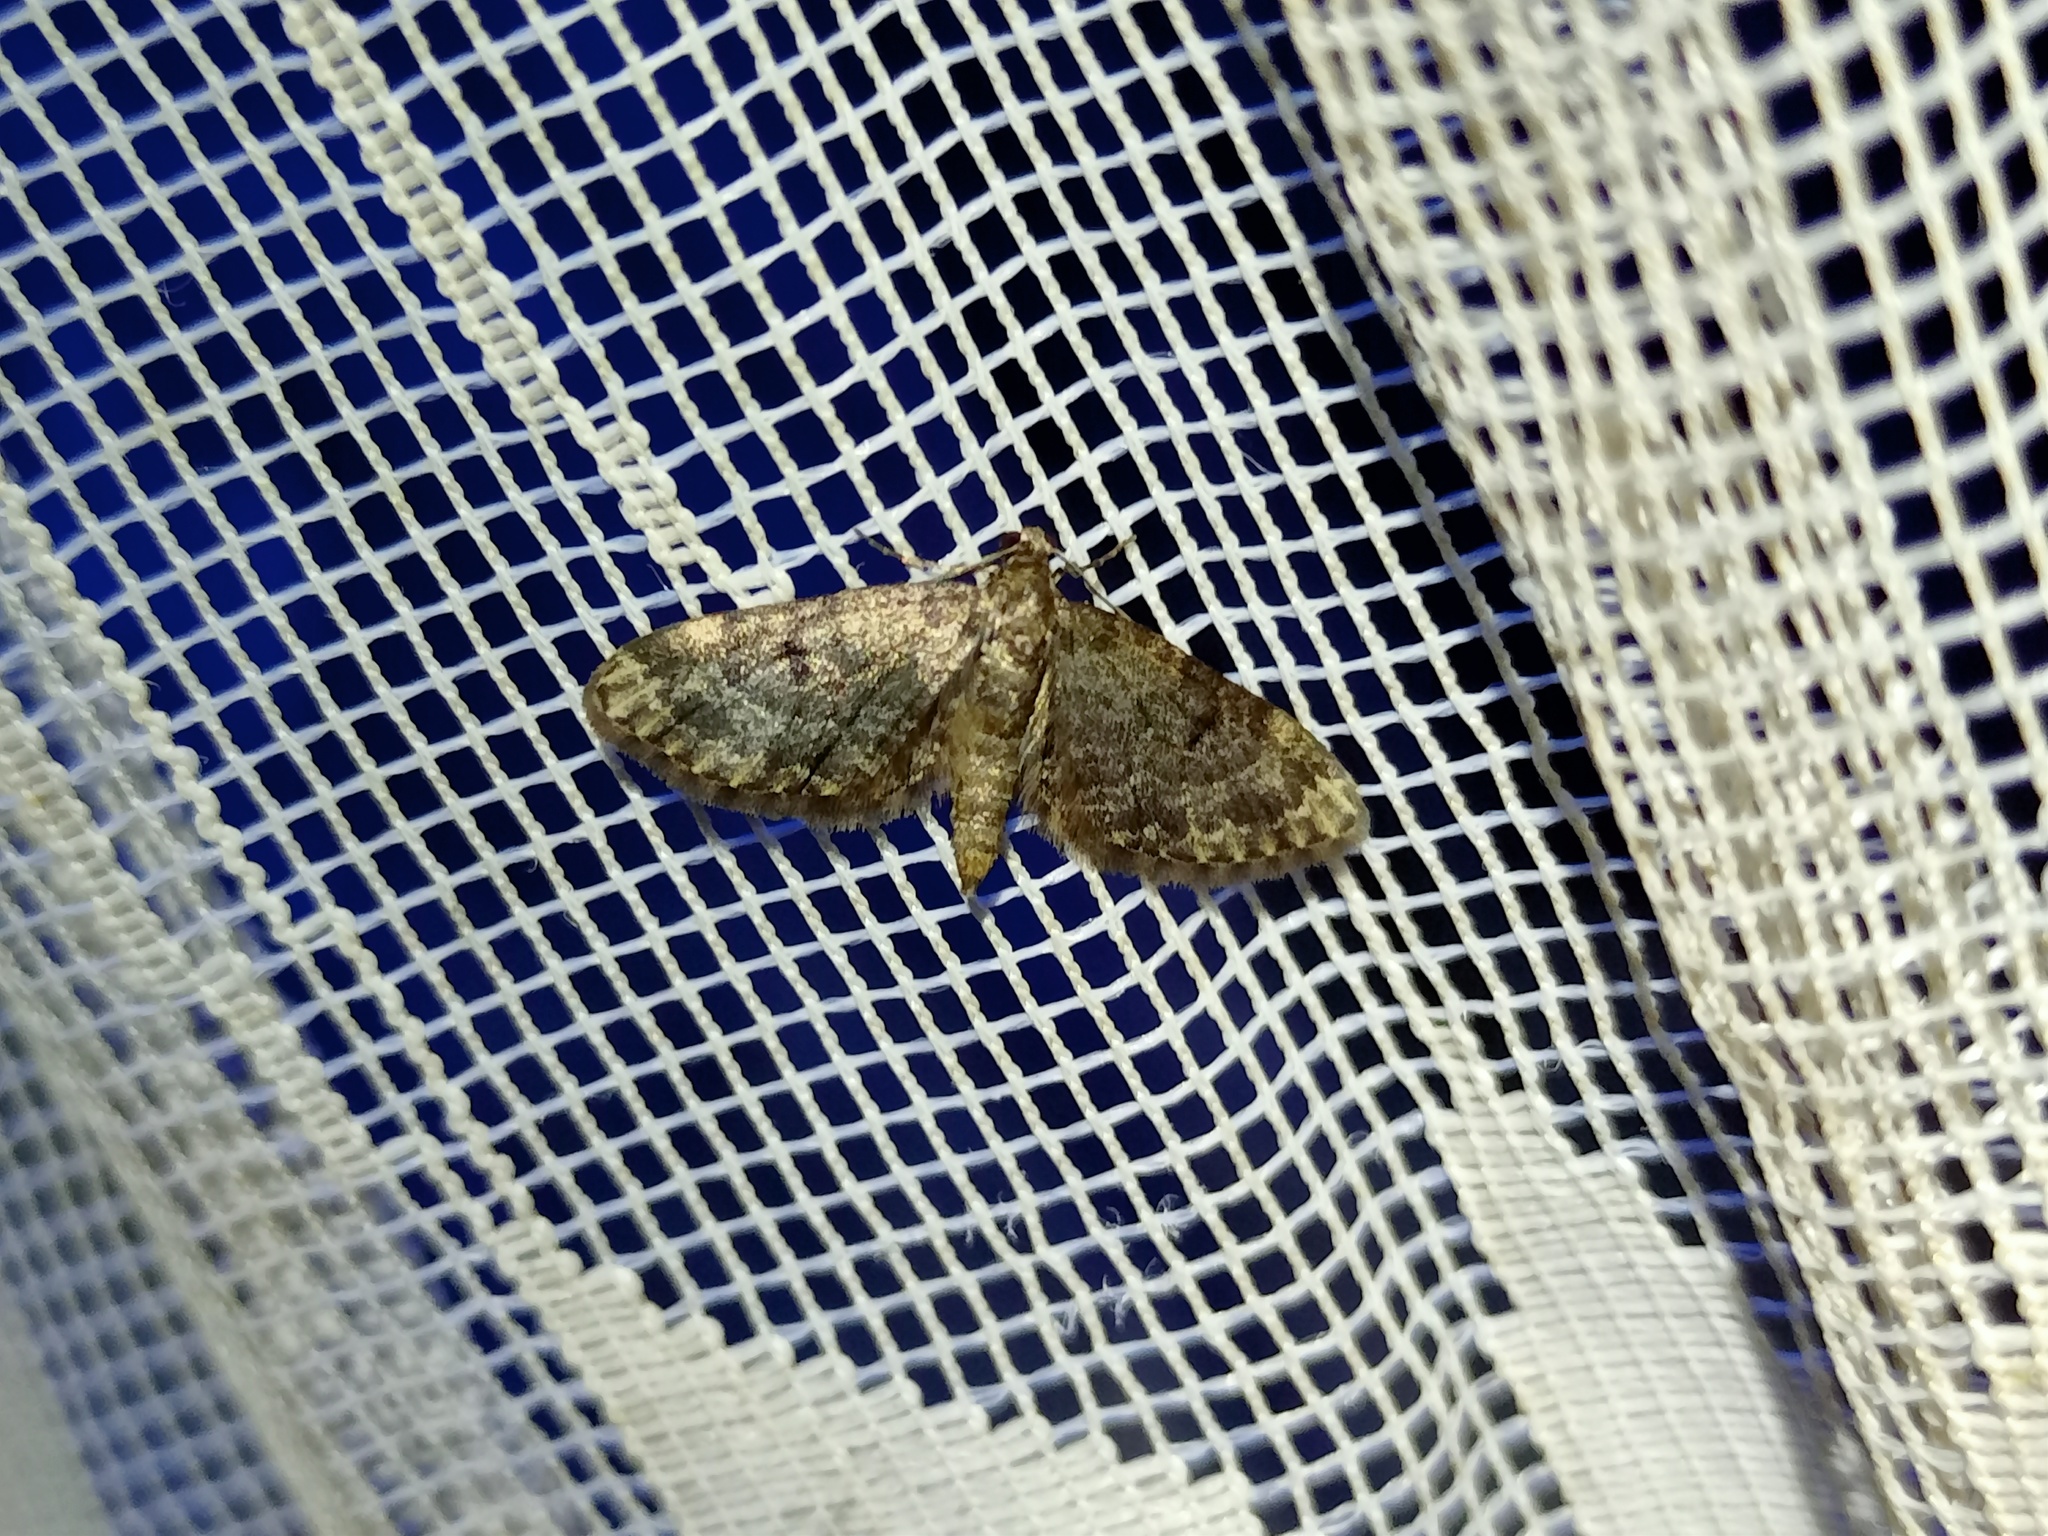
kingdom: Animalia
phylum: Arthropoda
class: Insecta
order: Lepidoptera
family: Geometridae
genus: Eupithecia
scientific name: Eupithecia tantillaria
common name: Dwarf pug
